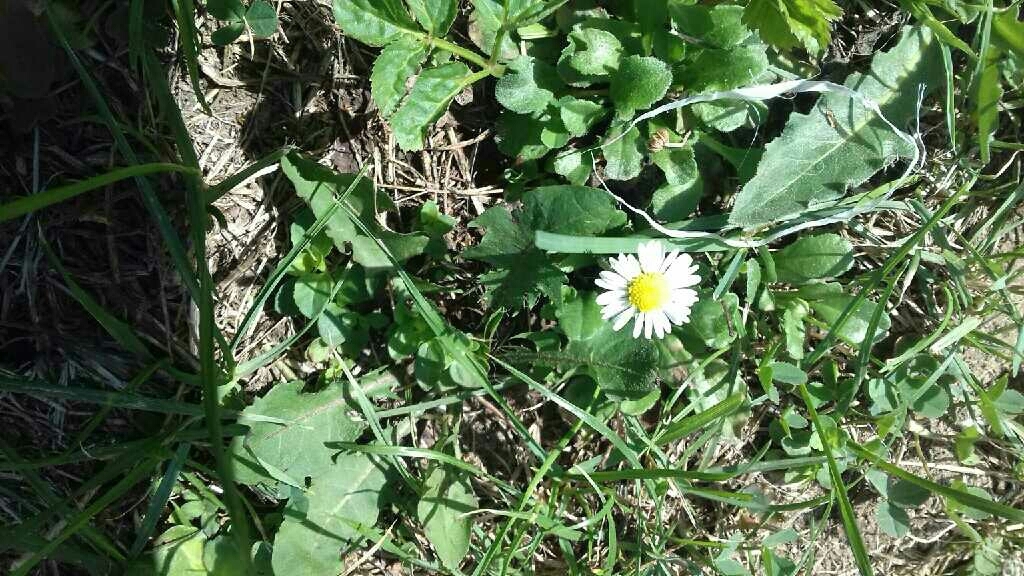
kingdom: Plantae
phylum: Tracheophyta
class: Magnoliopsida
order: Asterales
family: Asteraceae
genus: Bellis
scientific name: Bellis perennis
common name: Lawndaisy
